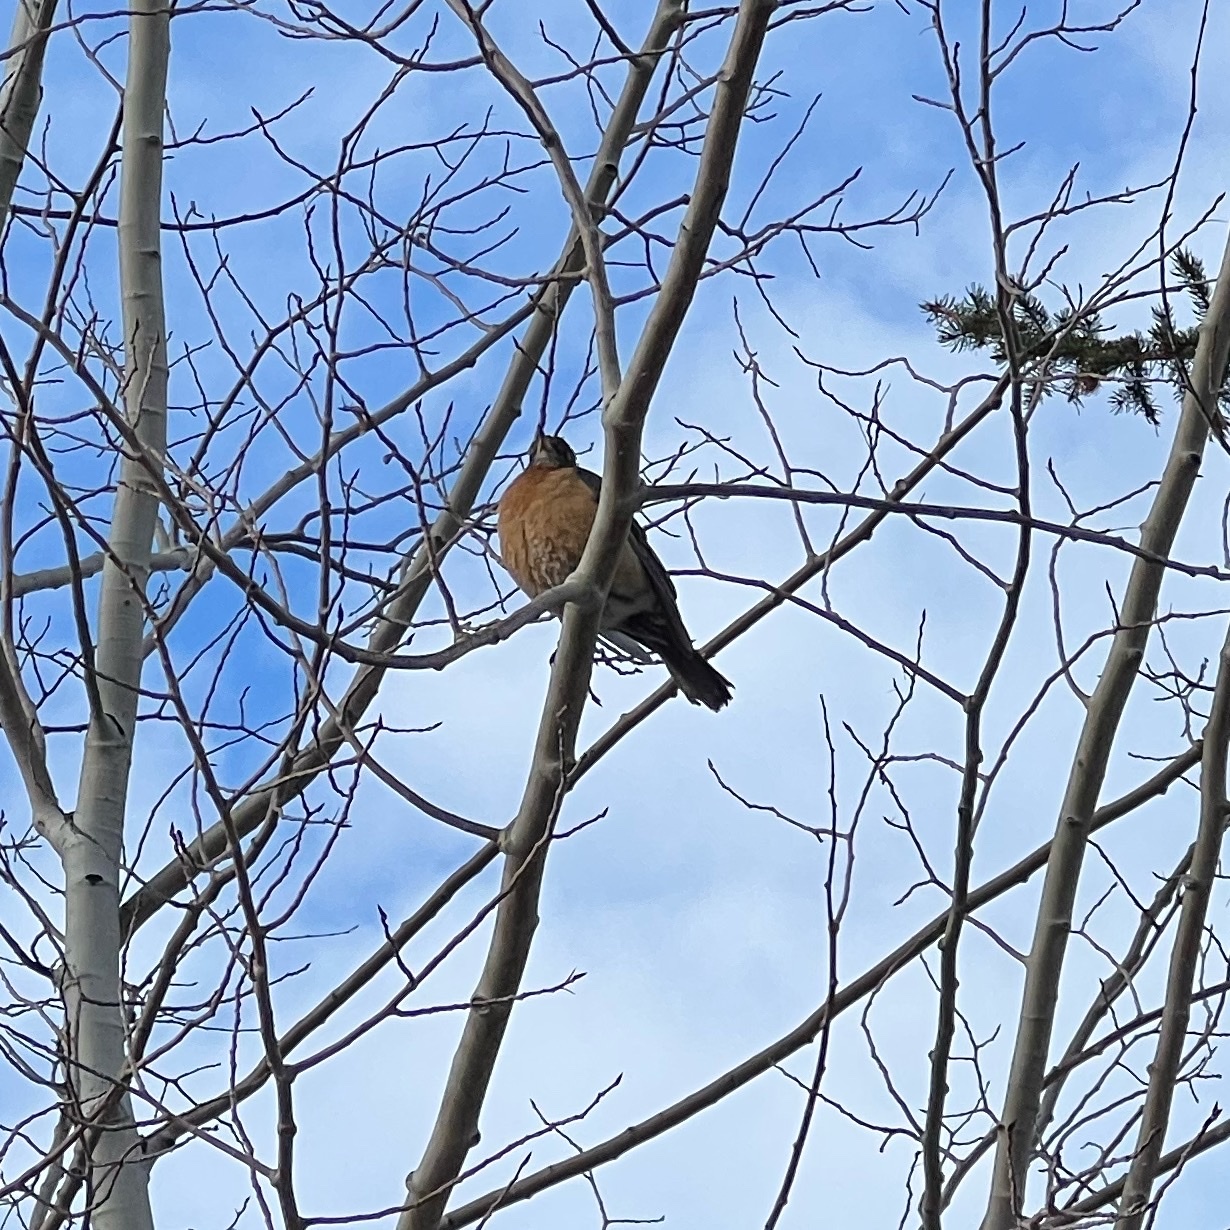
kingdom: Animalia
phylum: Chordata
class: Aves
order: Passeriformes
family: Turdidae
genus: Turdus
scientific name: Turdus migratorius
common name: American robin
